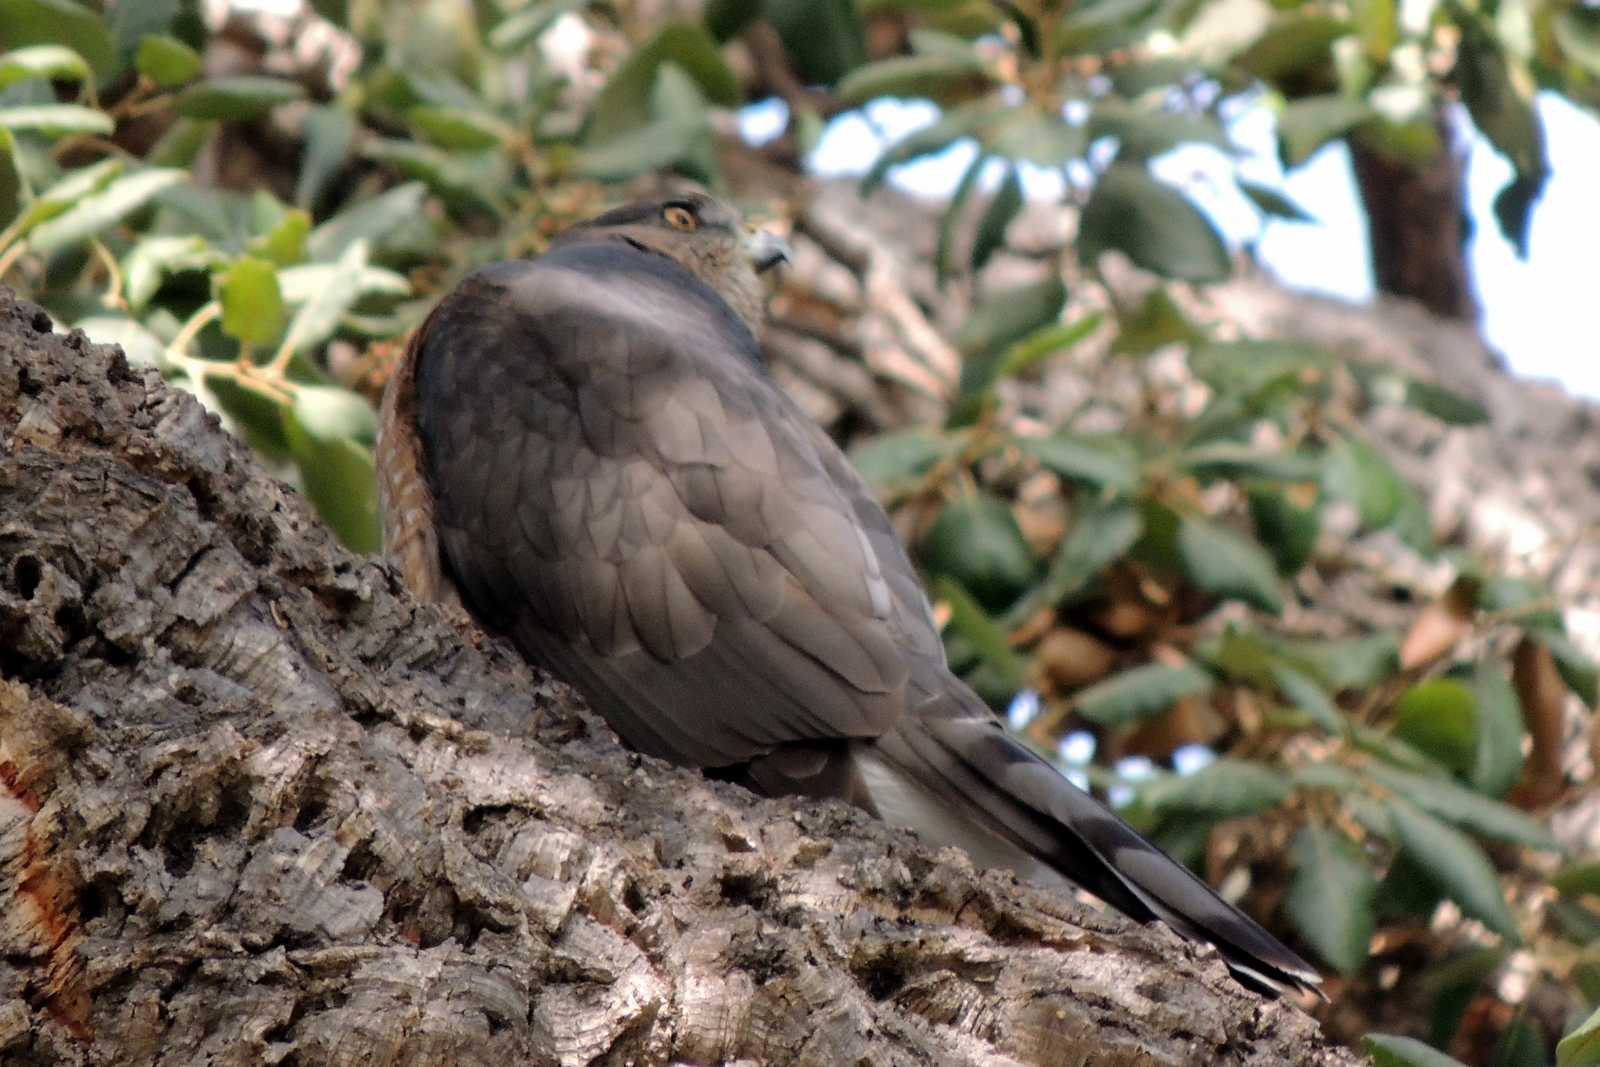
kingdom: Animalia
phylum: Chordata
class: Aves
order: Accipitriformes
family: Accipitridae
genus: Accipiter
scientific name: Accipiter cooperii
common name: Cooper's hawk
